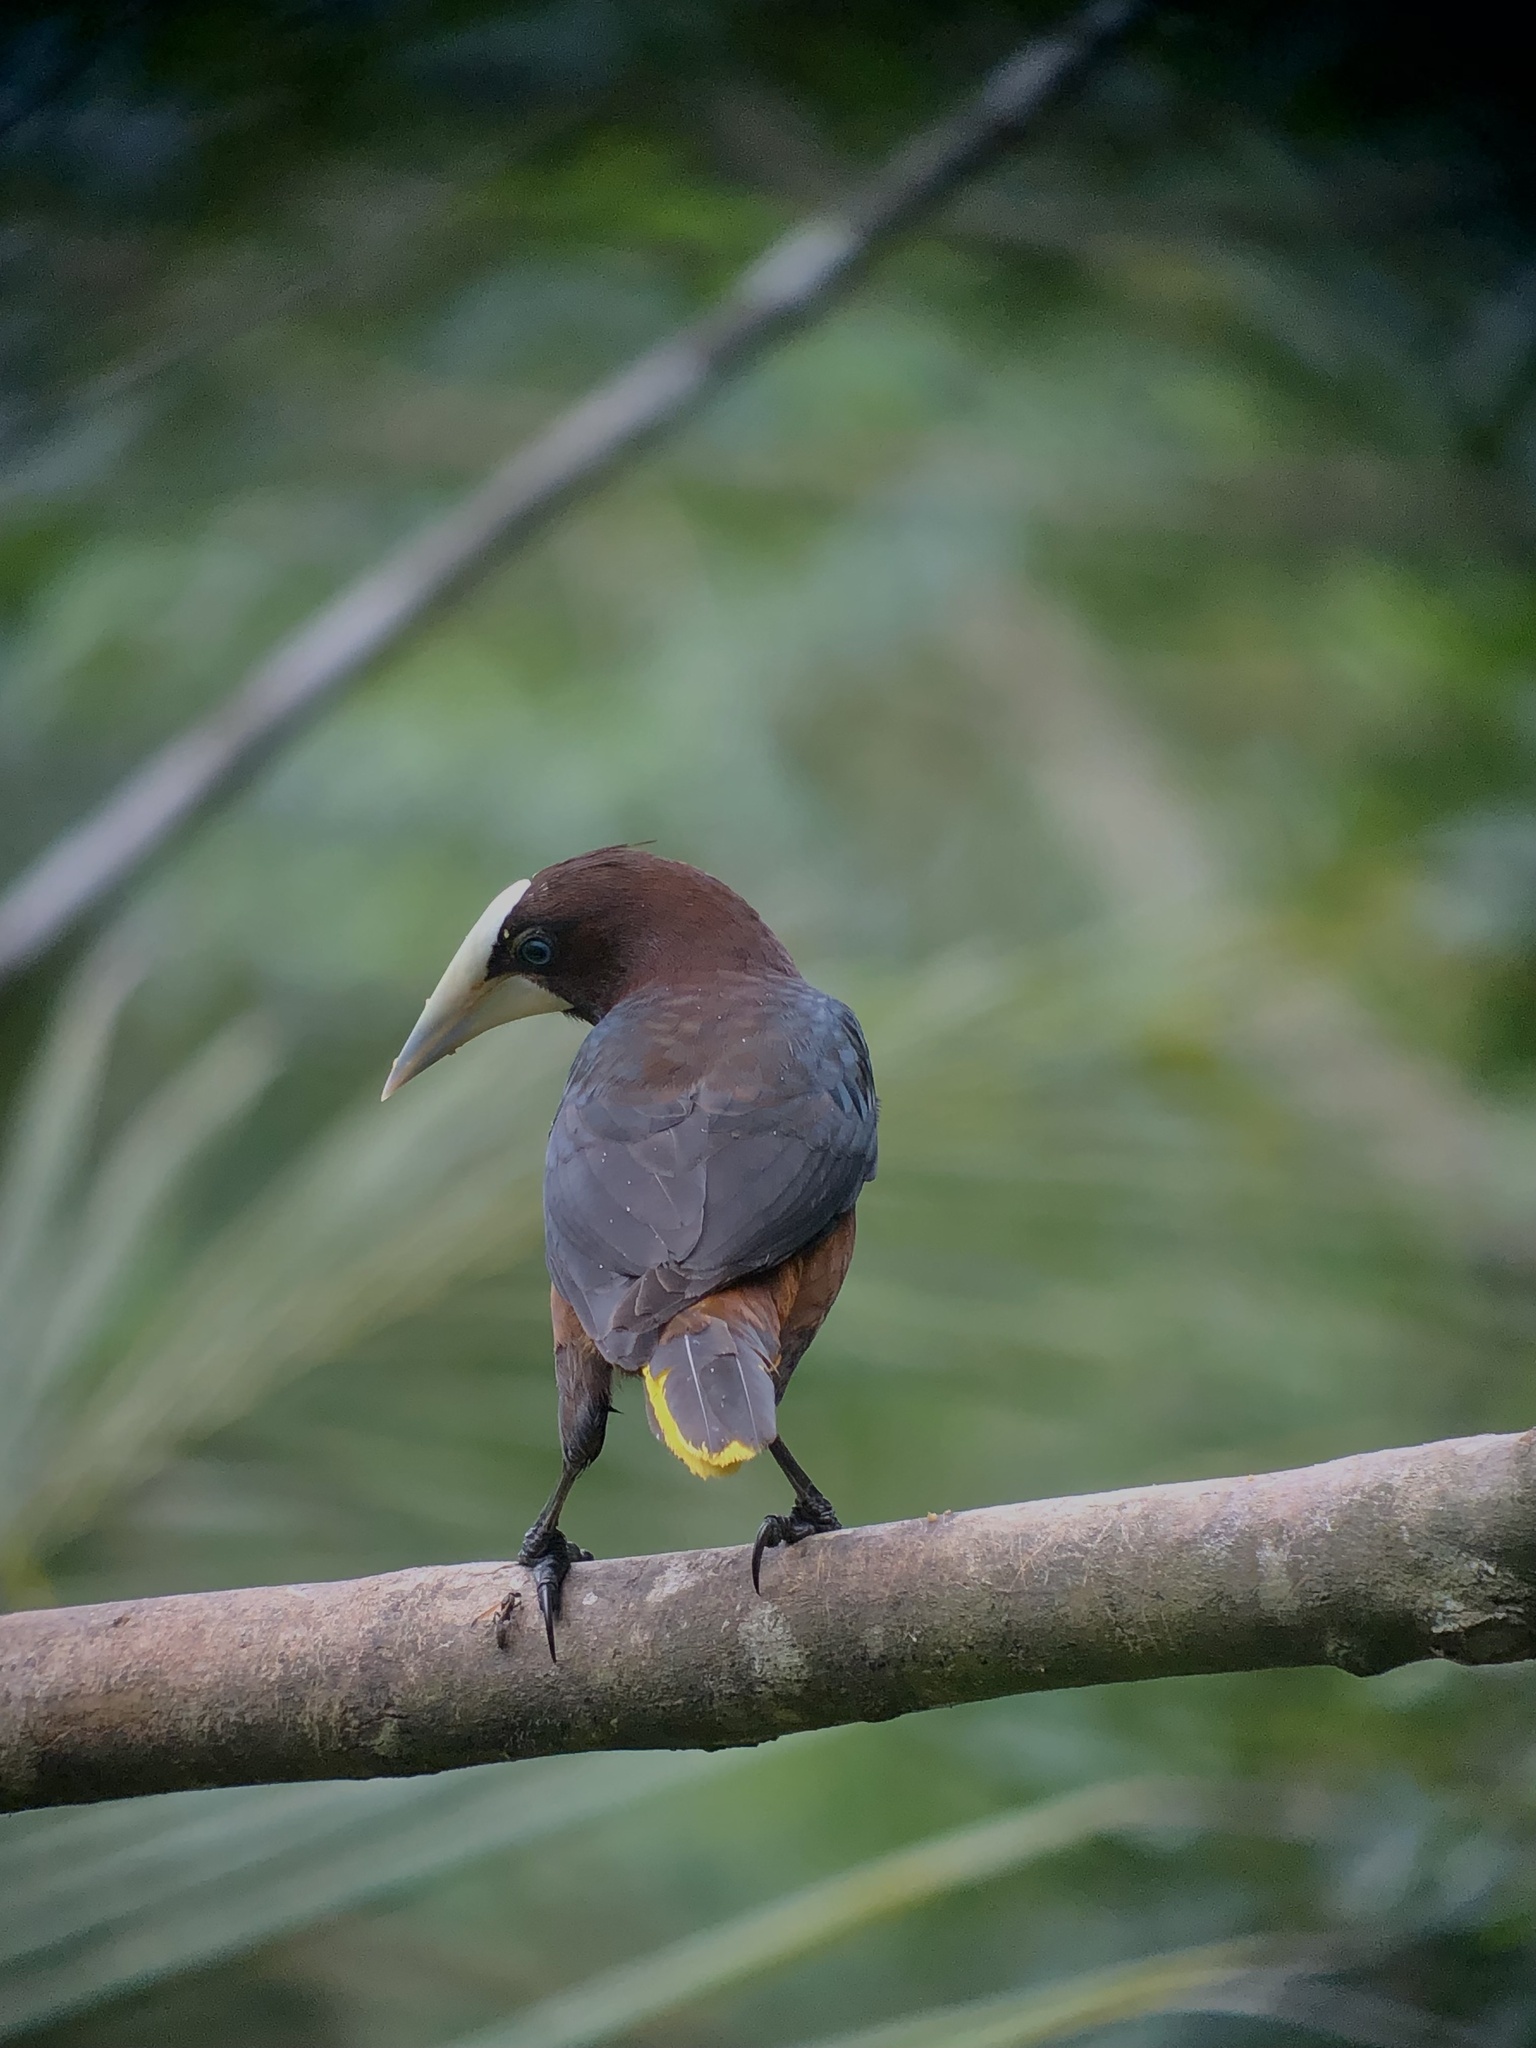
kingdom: Animalia
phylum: Chordata
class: Aves
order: Passeriformes
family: Icteridae
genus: Psarocolius
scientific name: Psarocolius wagleri
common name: Chestnut-headed oropendola
